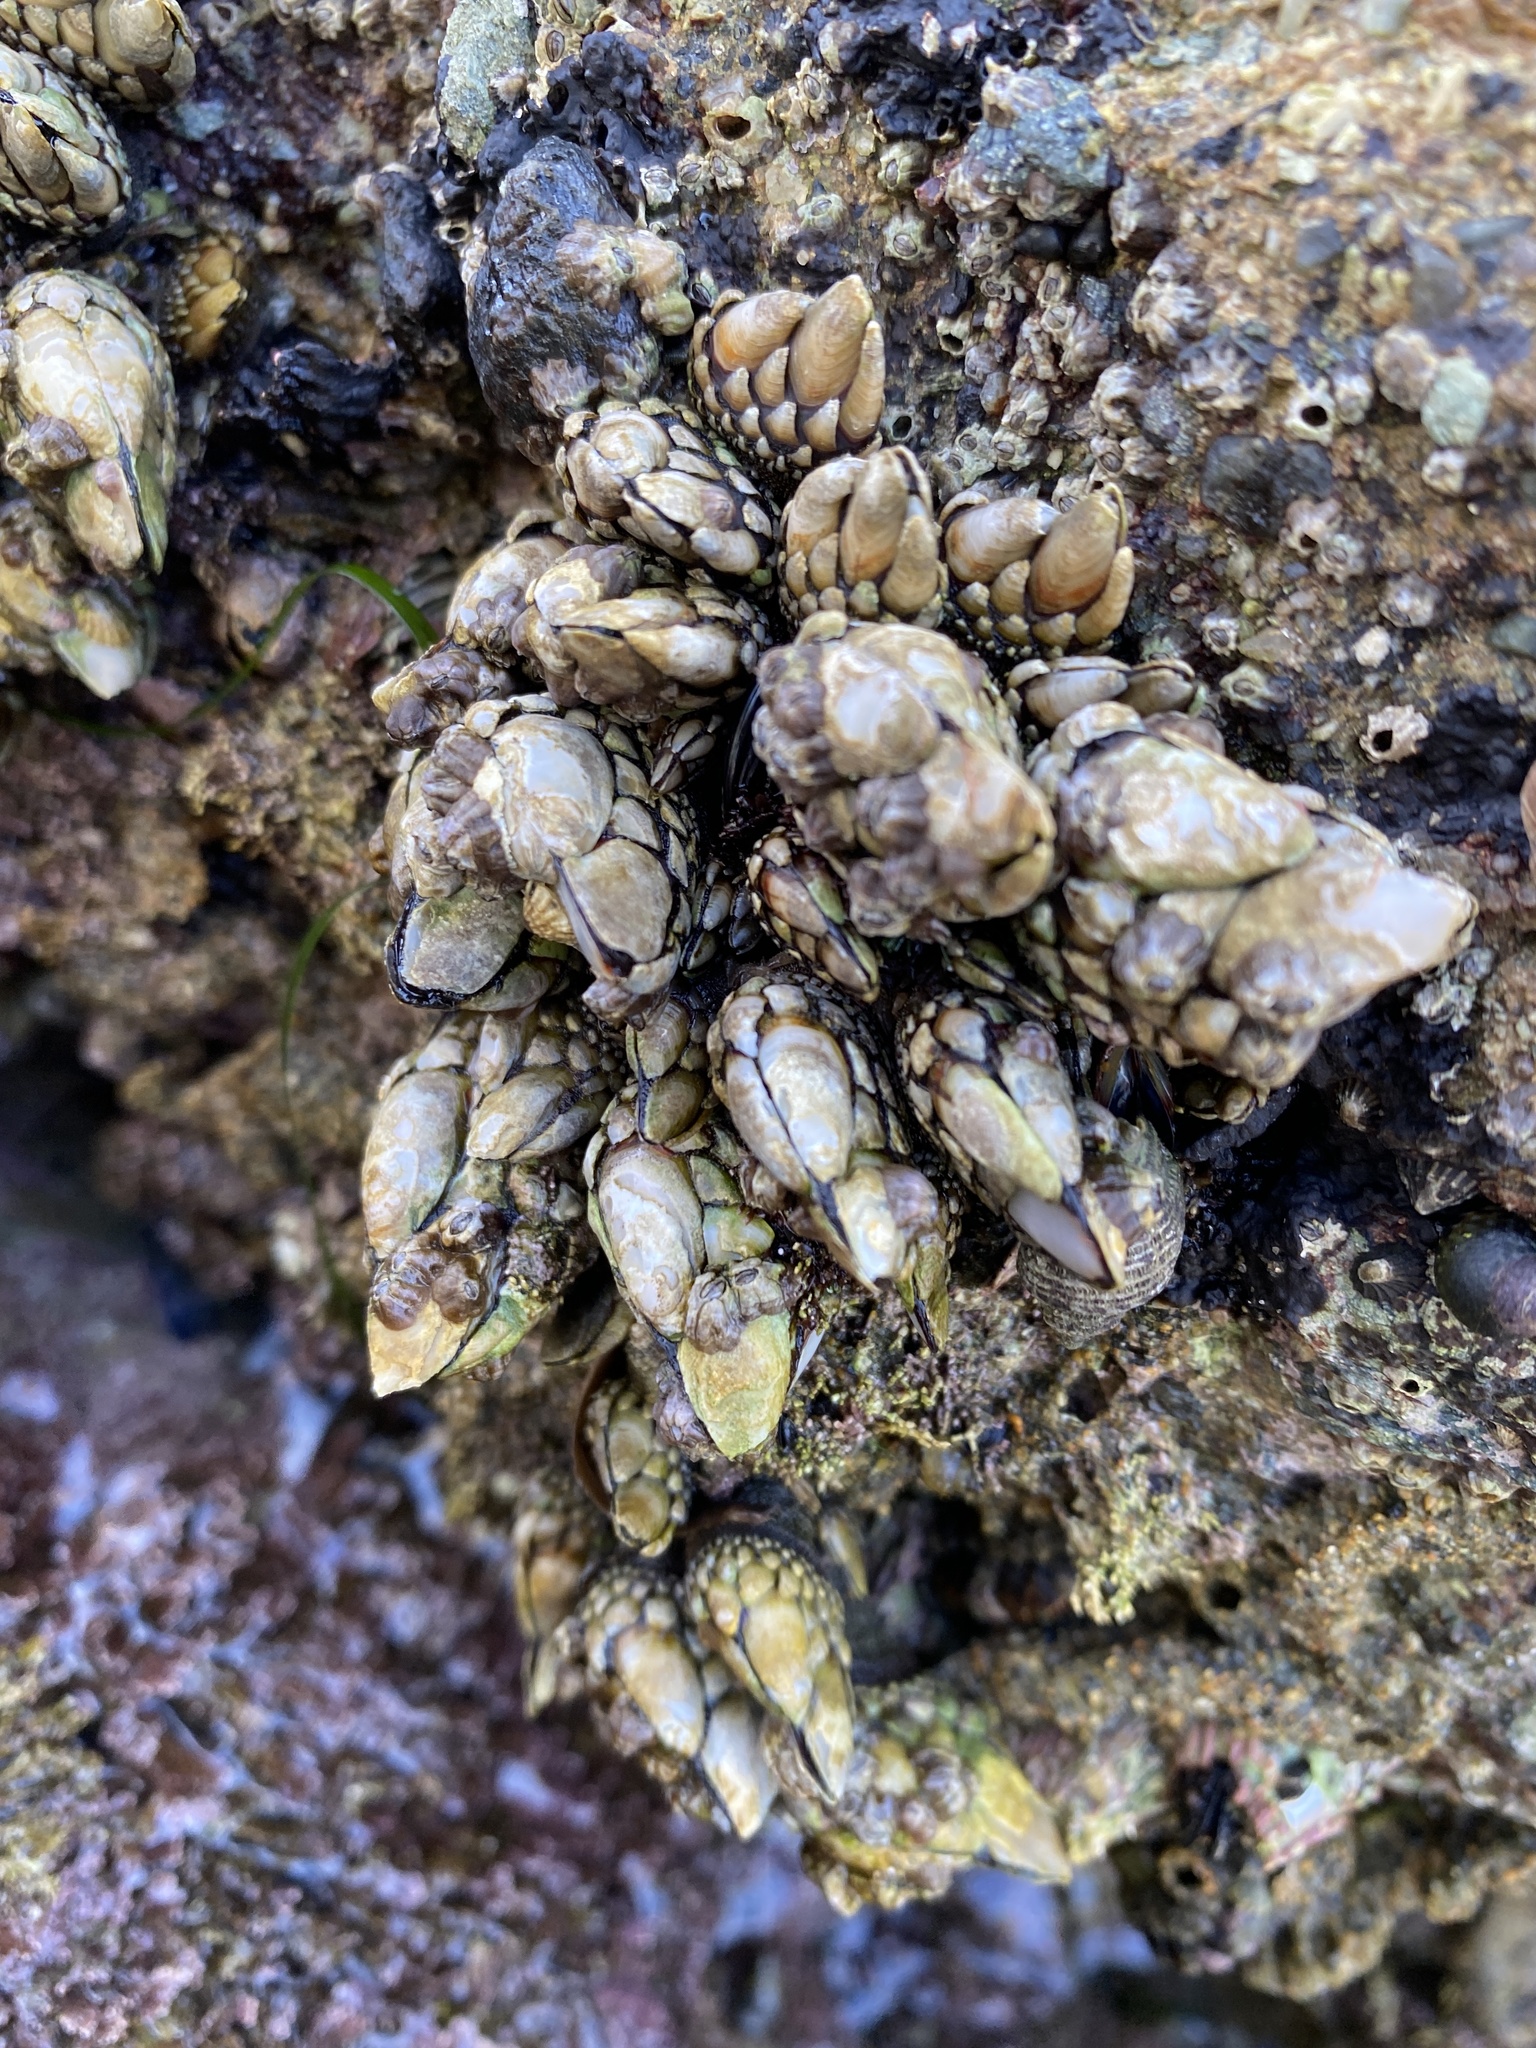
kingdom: Animalia
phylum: Arthropoda
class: Maxillopoda
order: Pedunculata
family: Pollicipedidae
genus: Pollicipes
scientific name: Pollicipes polymerus
